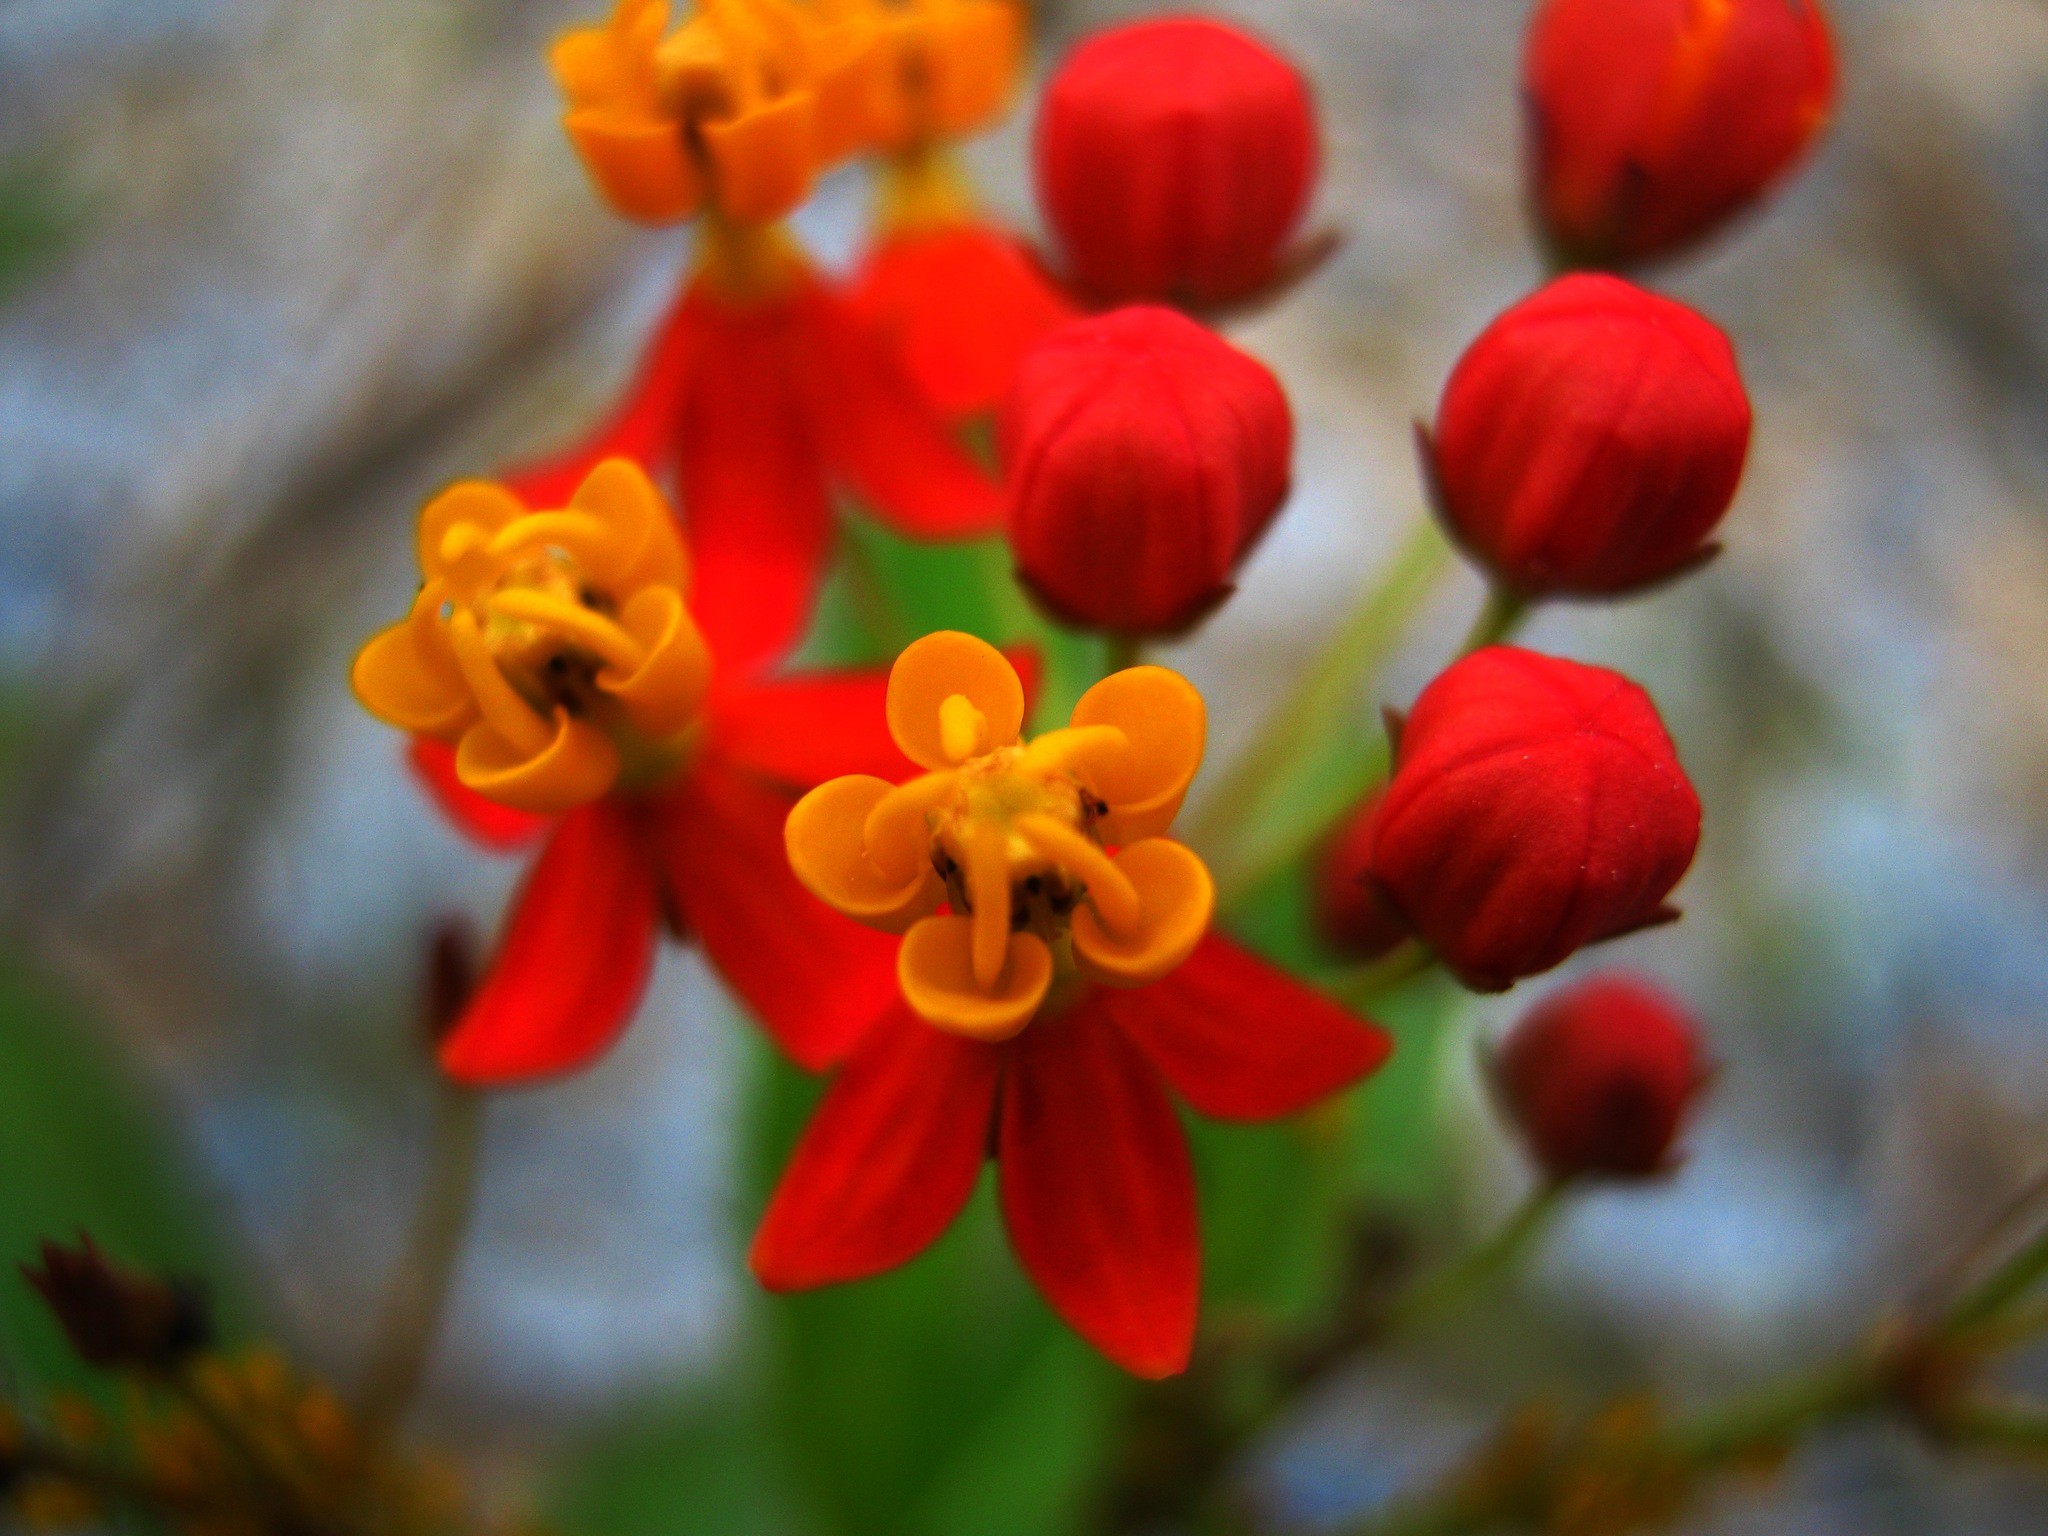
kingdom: Plantae
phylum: Tracheophyta
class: Magnoliopsida
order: Gentianales
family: Apocynaceae
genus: Asclepias
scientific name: Asclepias curassavica
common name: Bloodflower
